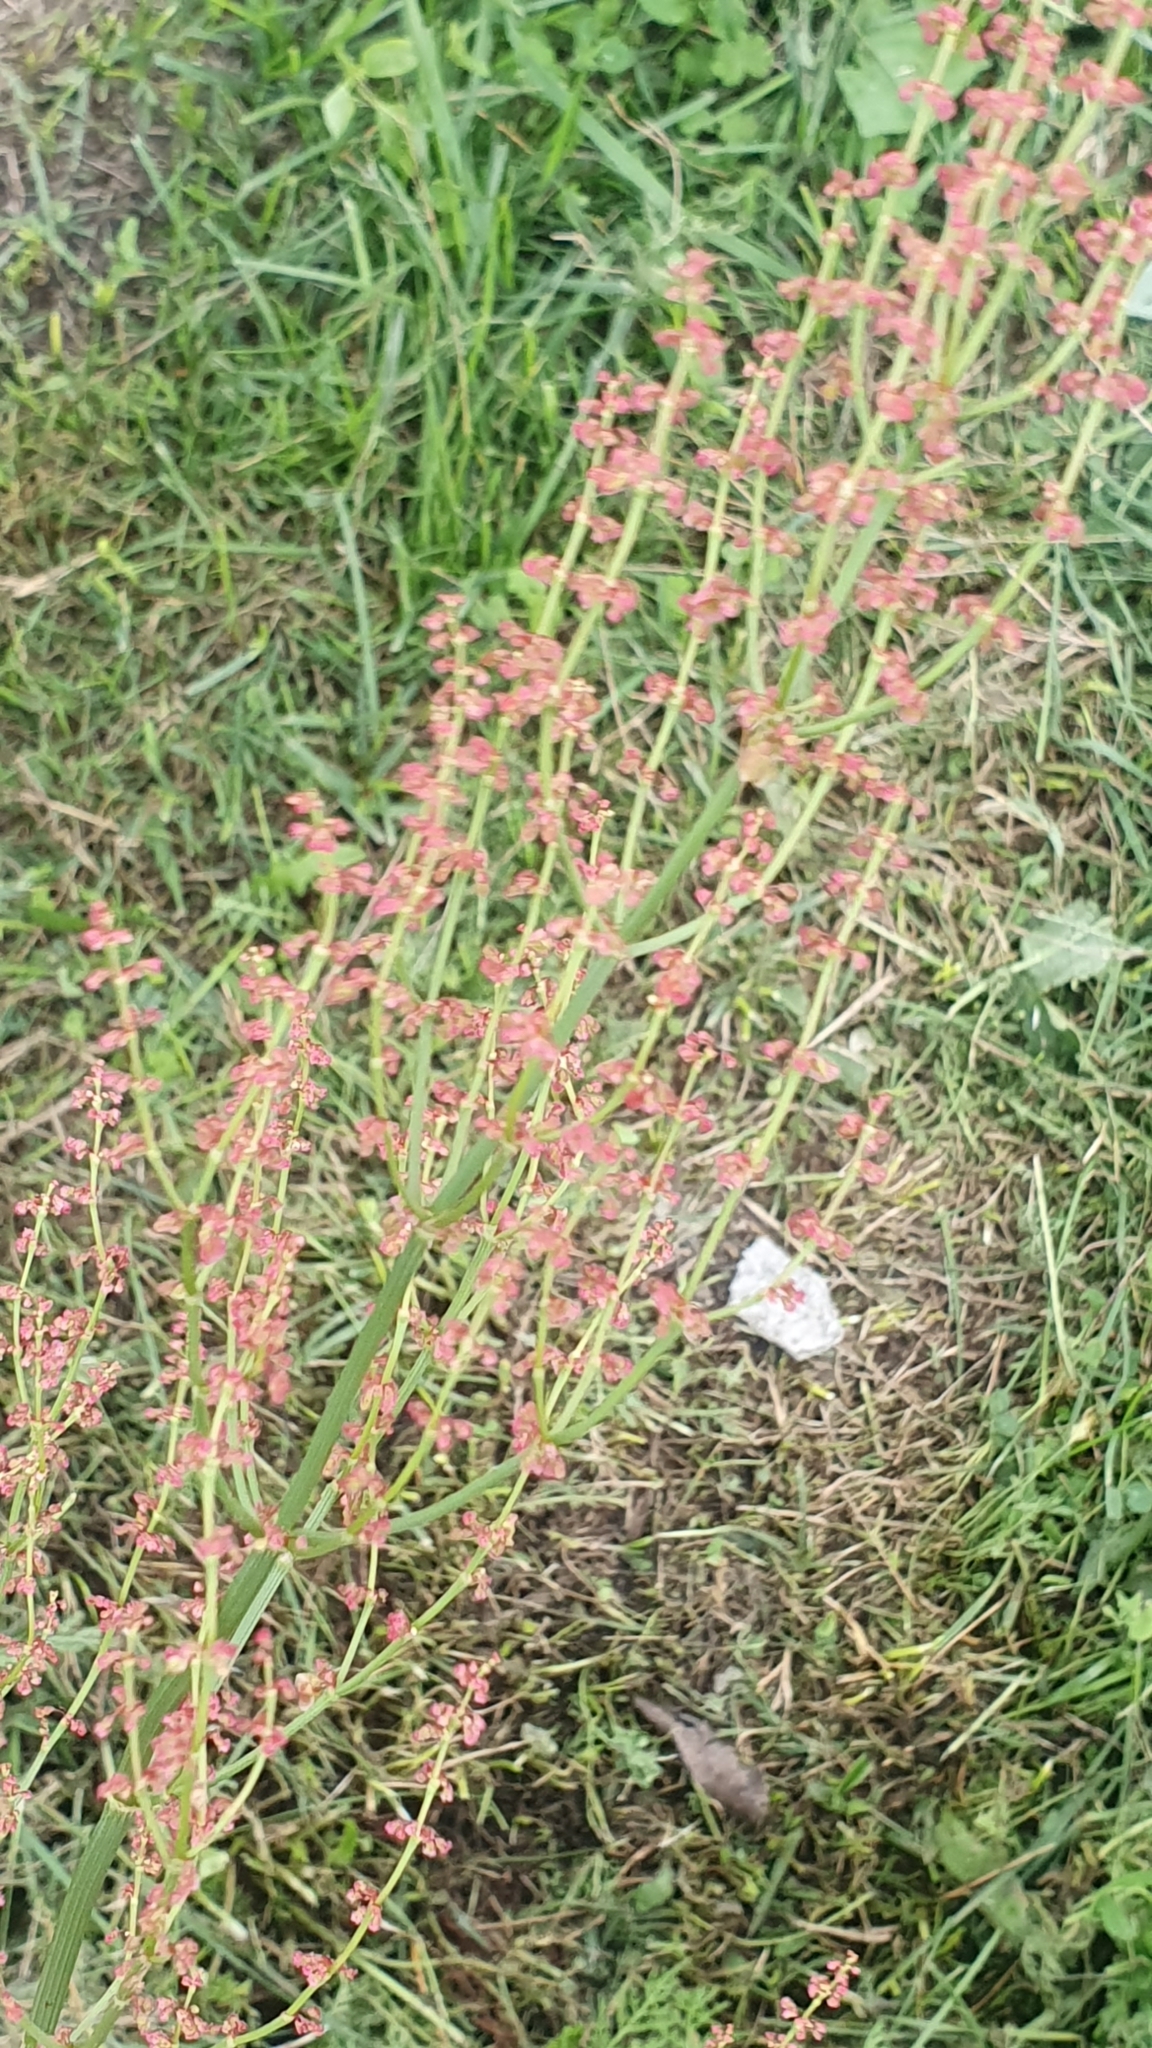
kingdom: Plantae
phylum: Tracheophyta
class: Magnoliopsida
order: Caryophyllales
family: Polygonaceae
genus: Rumex
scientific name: Rumex thyrsiflorus
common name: Garden sorrel
